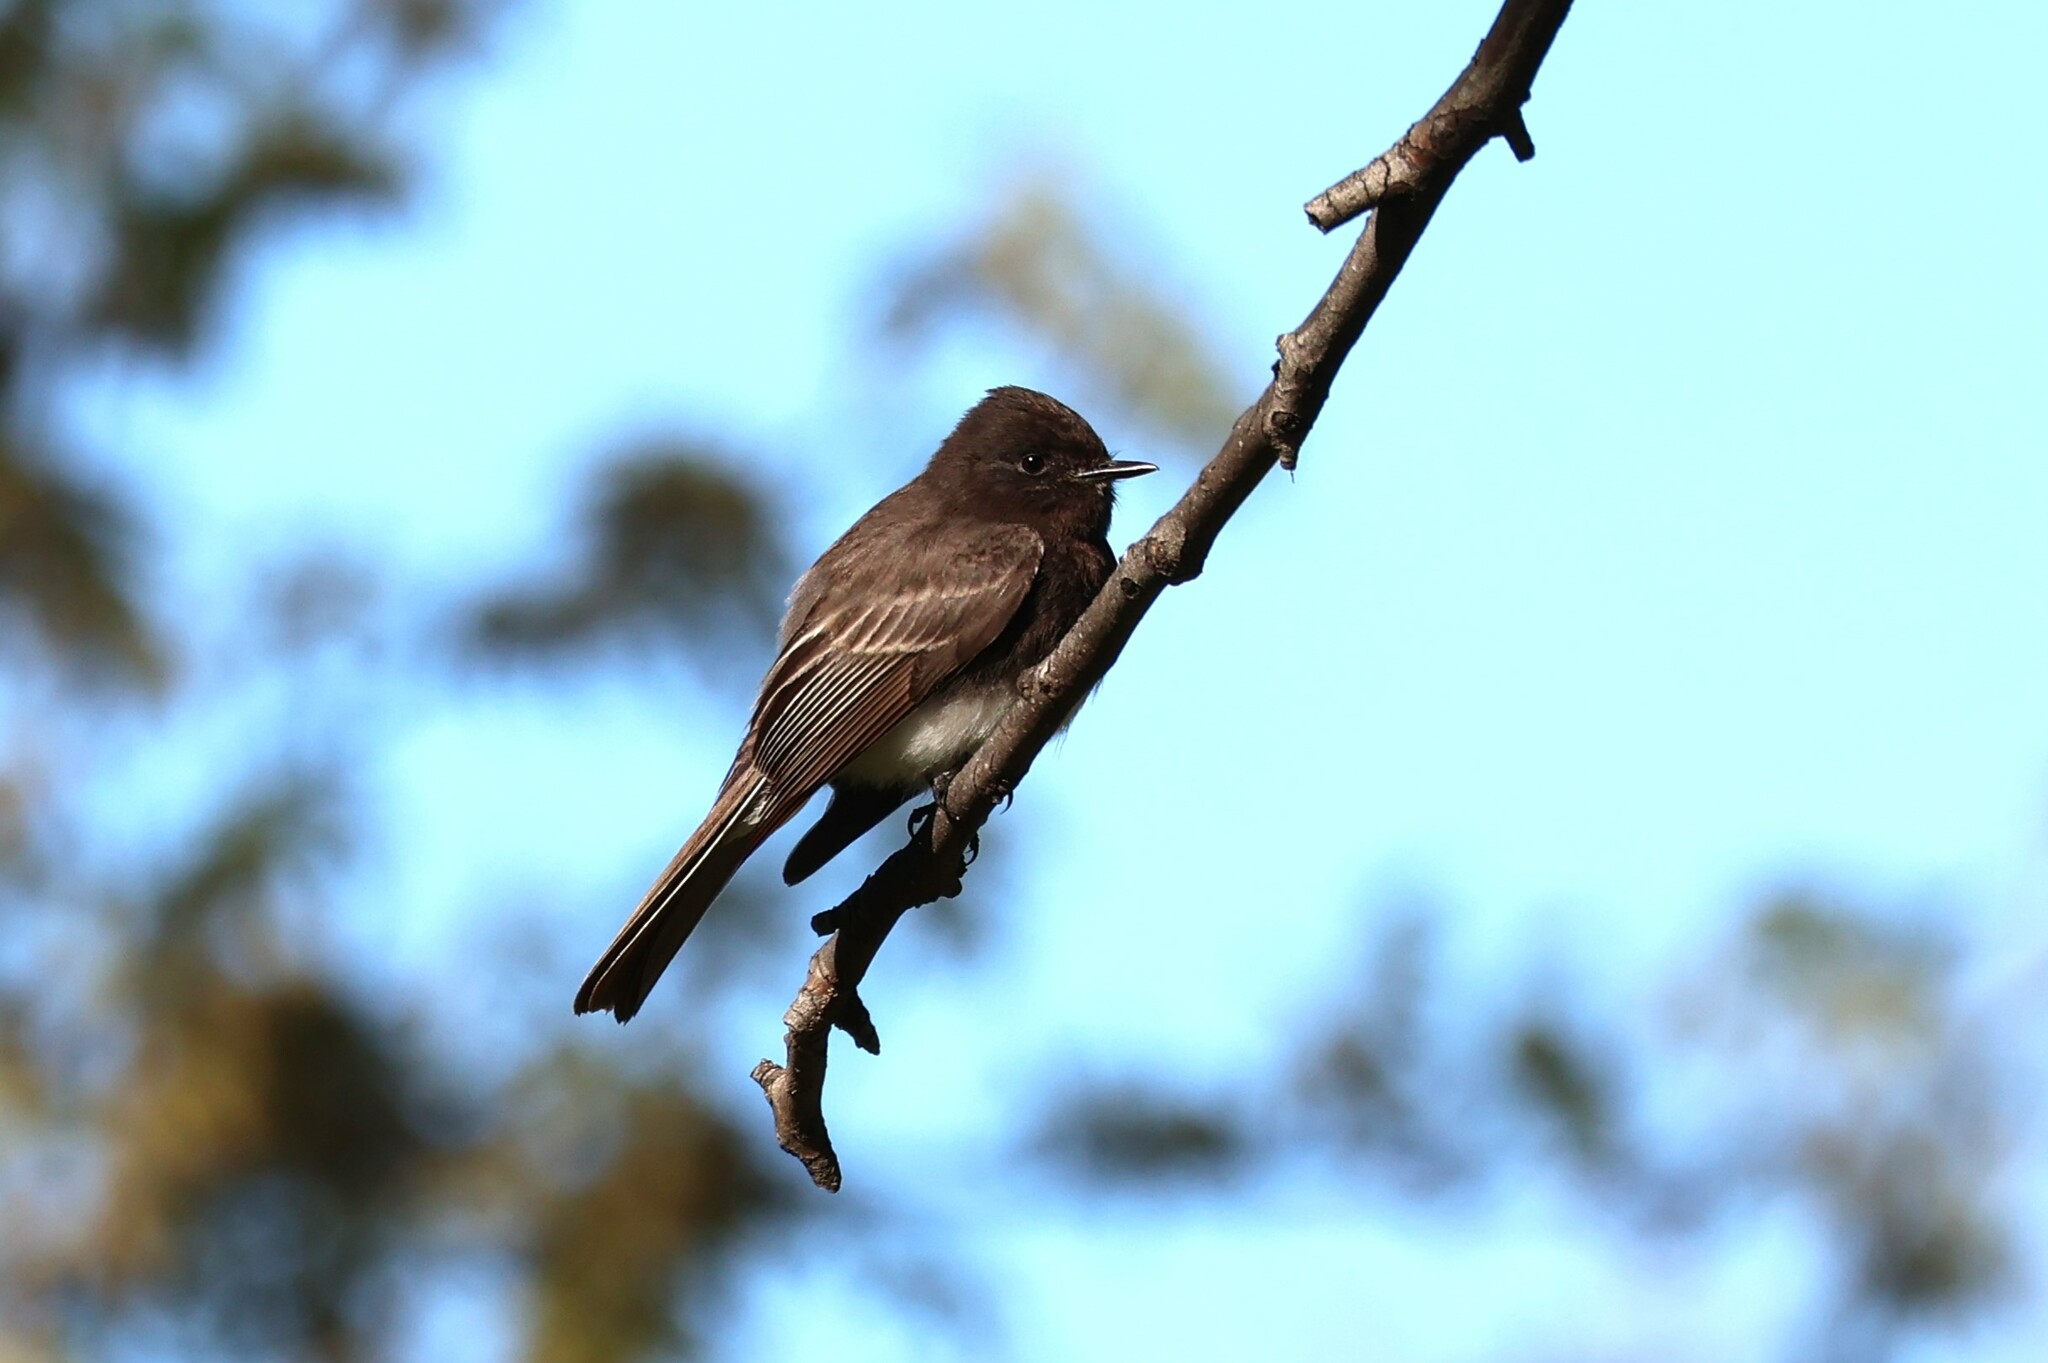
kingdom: Animalia
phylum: Chordata
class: Aves
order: Passeriformes
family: Tyrannidae
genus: Sayornis
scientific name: Sayornis nigricans
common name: Black phoebe
